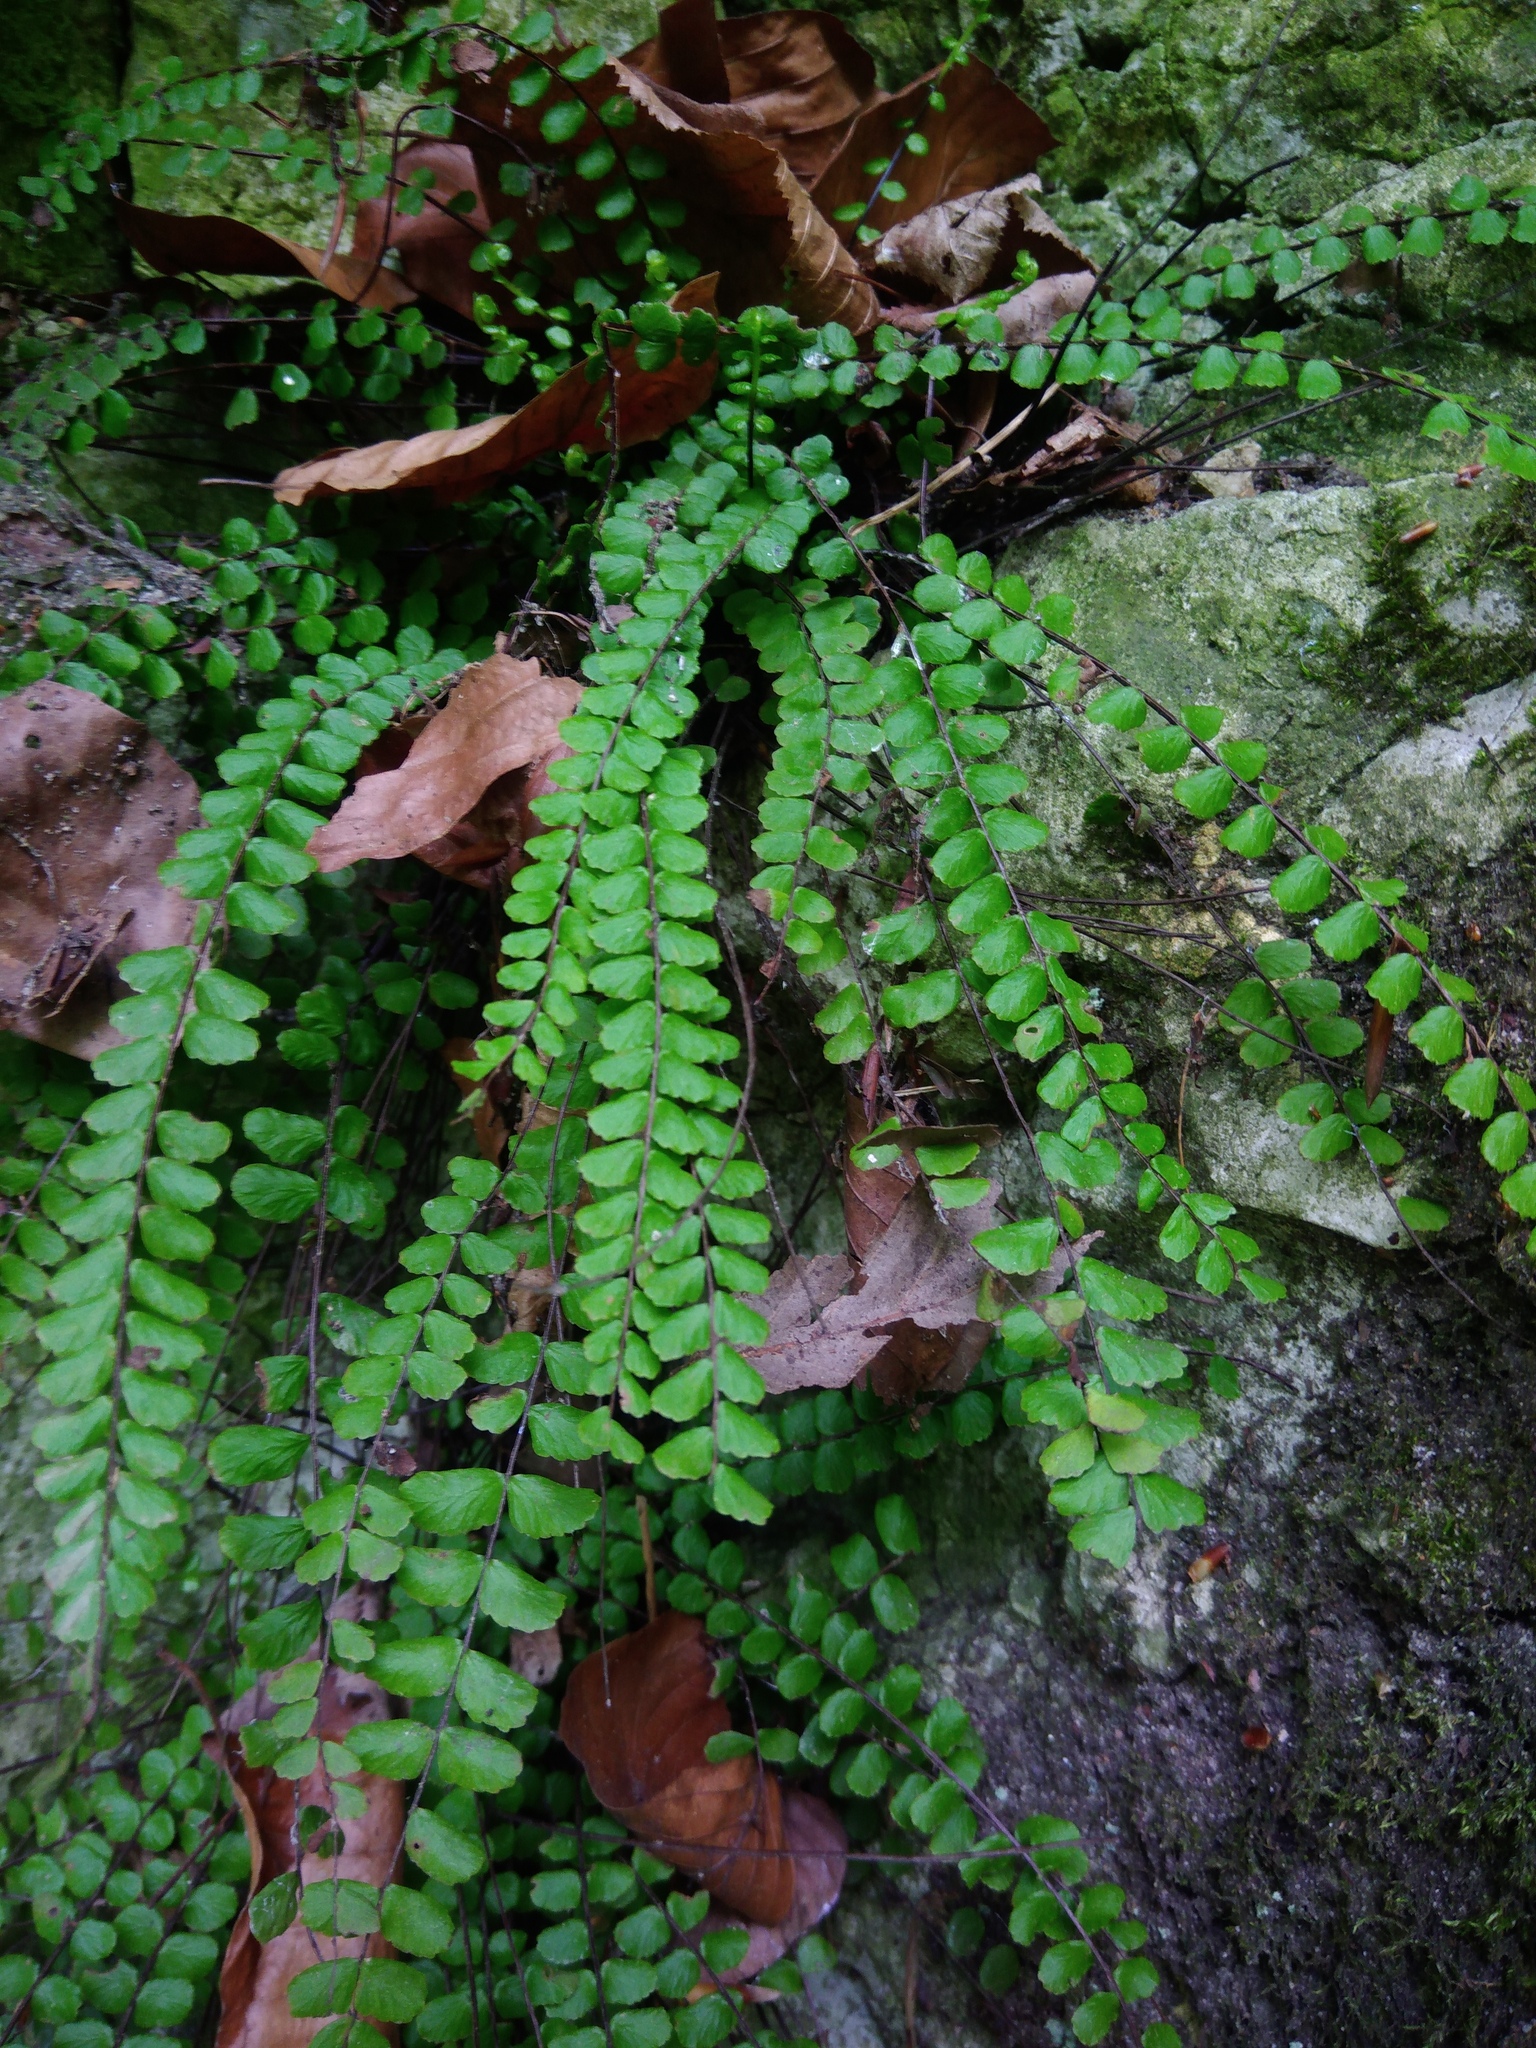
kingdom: Plantae
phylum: Tracheophyta
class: Polypodiopsida
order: Polypodiales
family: Aspleniaceae
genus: Asplenium
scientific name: Asplenium trichomanes
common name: Maidenhair spleenwort
